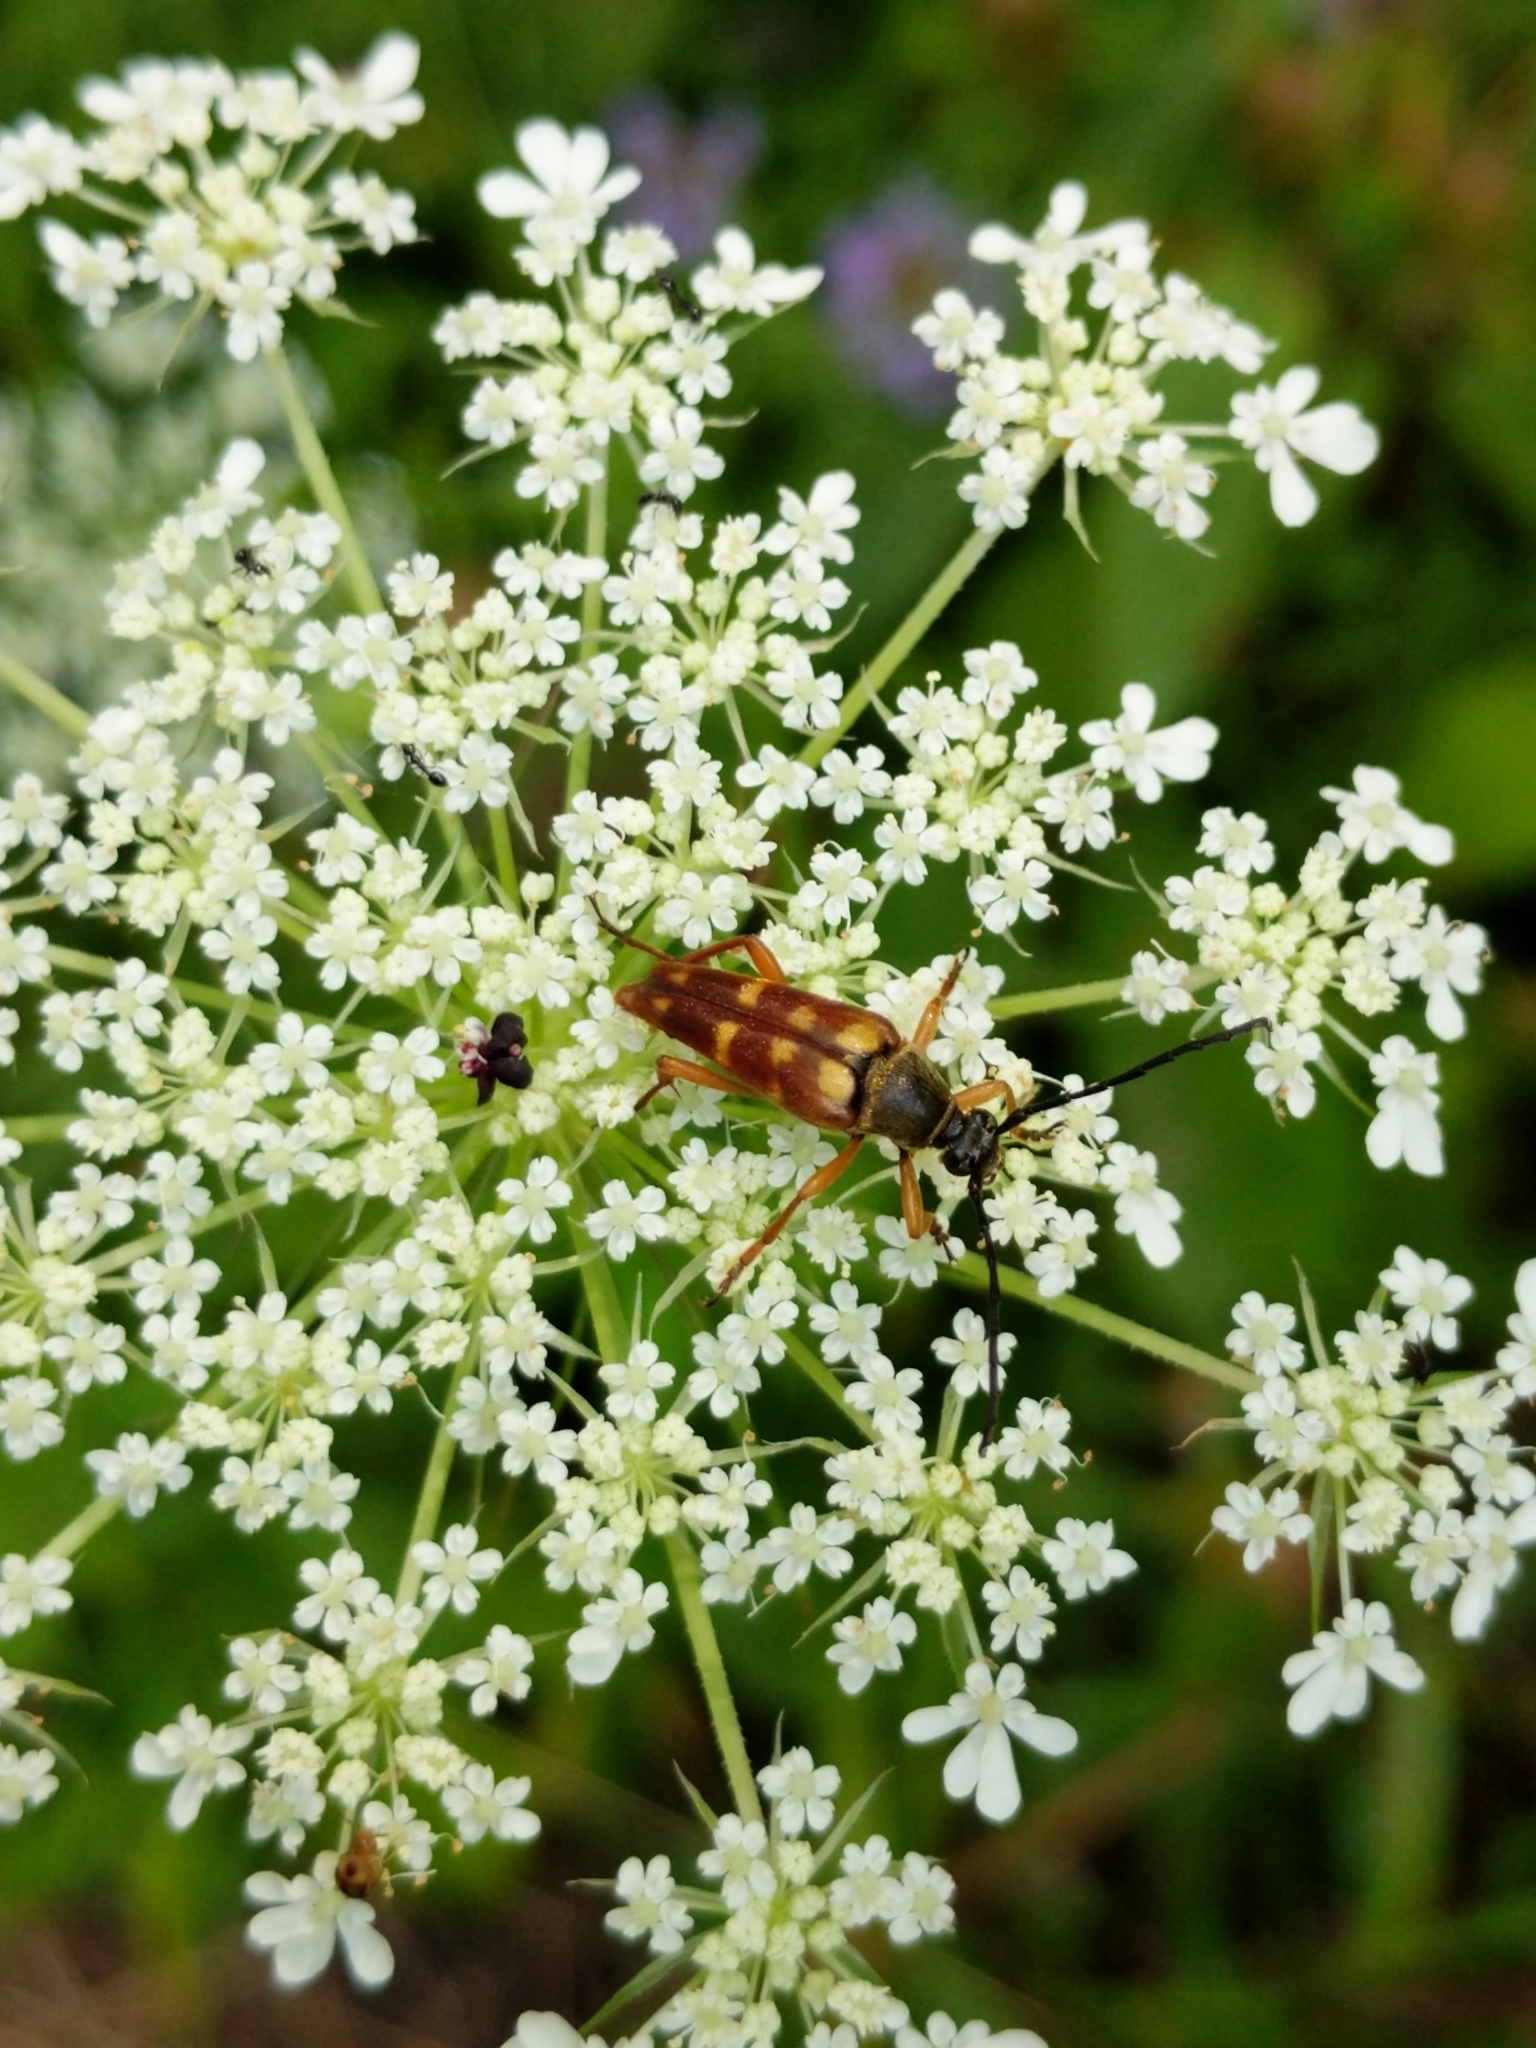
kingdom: Animalia
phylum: Arthropoda
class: Insecta
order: Coleoptera
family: Cerambycidae
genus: Typocerus
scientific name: Typocerus velutinus
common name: Banded longhorn beetle
